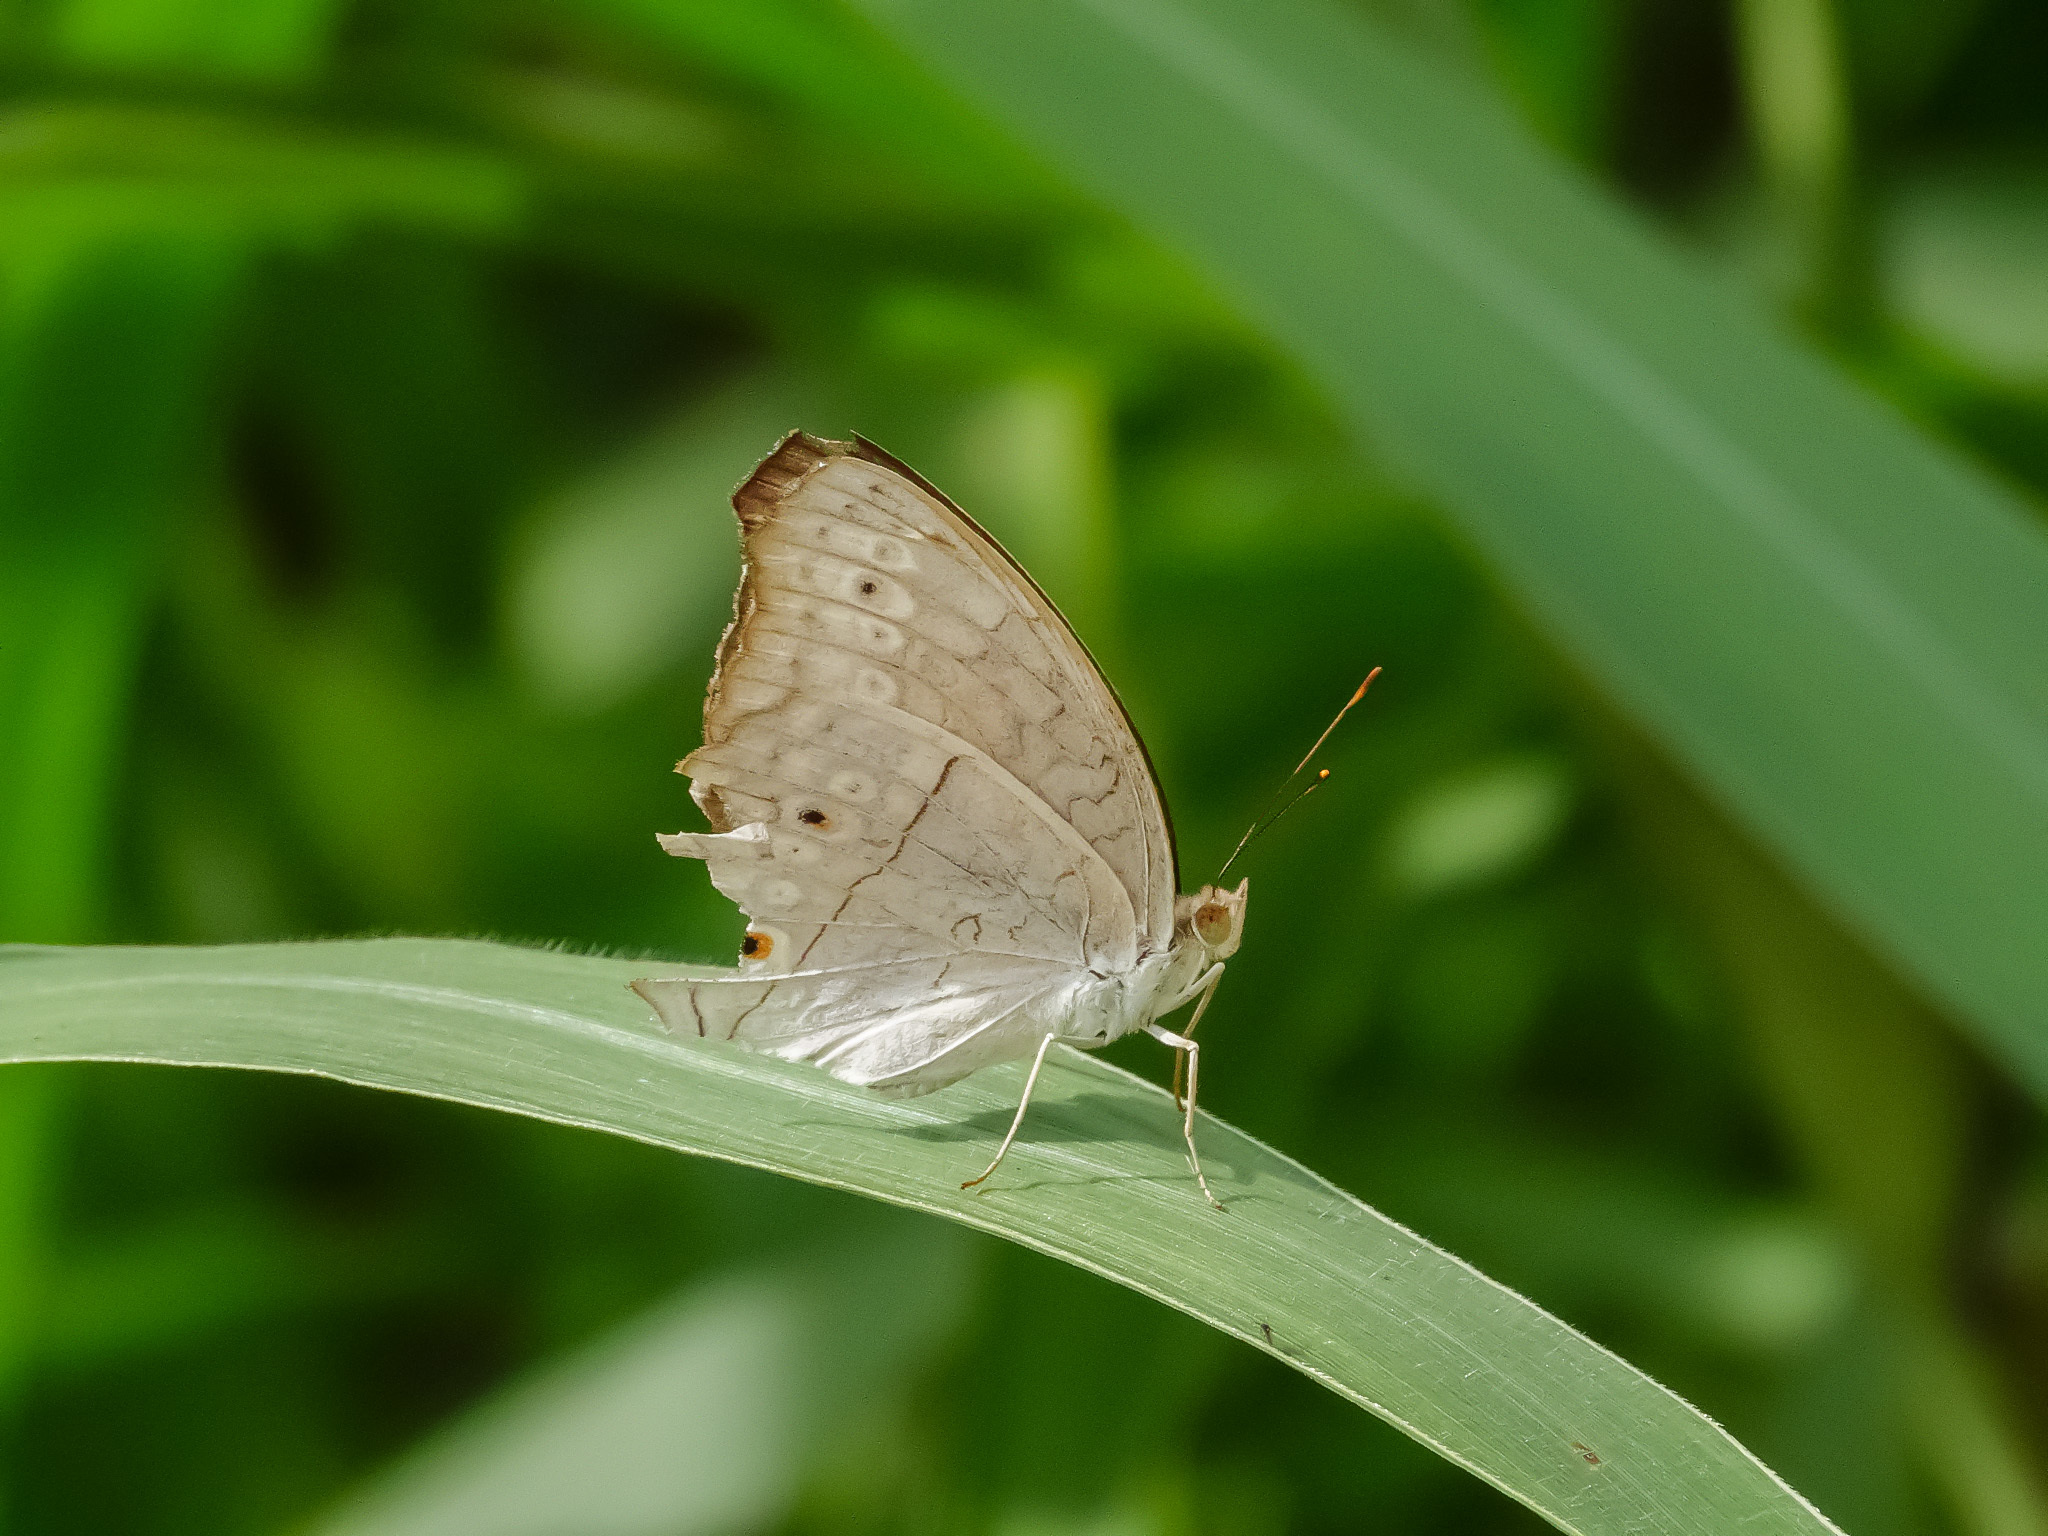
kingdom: Animalia
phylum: Arthropoda
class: Insecta
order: Lepidoptera
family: Nymphalidae
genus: Junonia
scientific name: Junonia atlites
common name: Grey pansy
